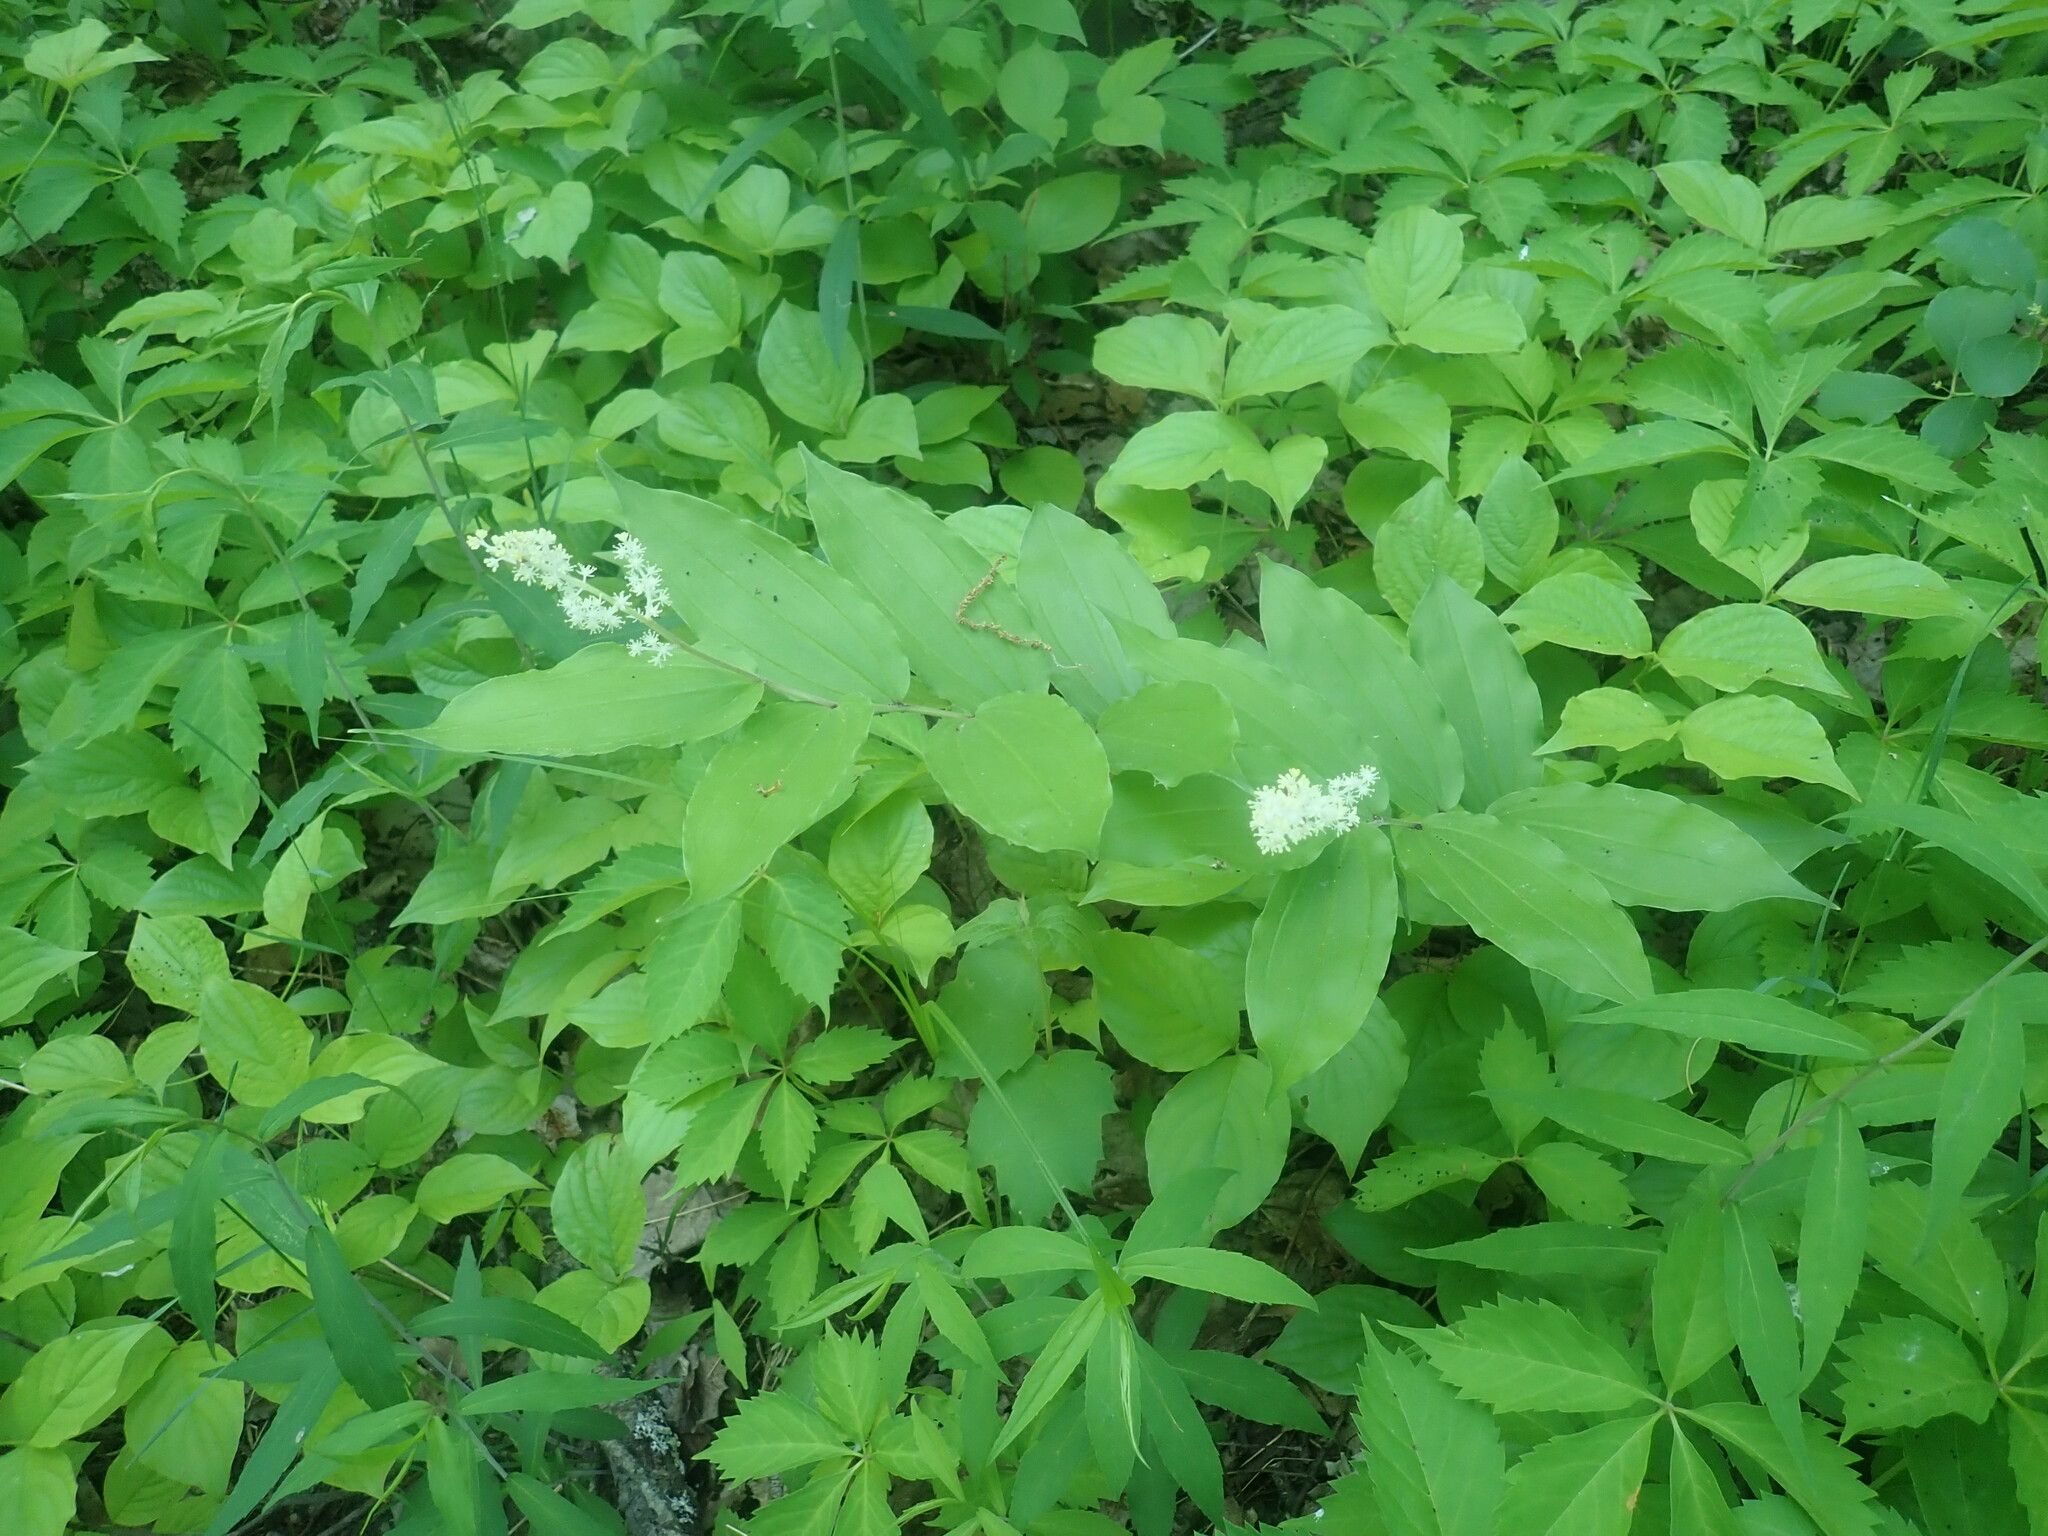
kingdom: Plantae
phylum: Tracheophyta
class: Liliopsida
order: Asparagales
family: Asparagaceae
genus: Maianthemum
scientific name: Maianthemum racemosum
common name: False spikenard
